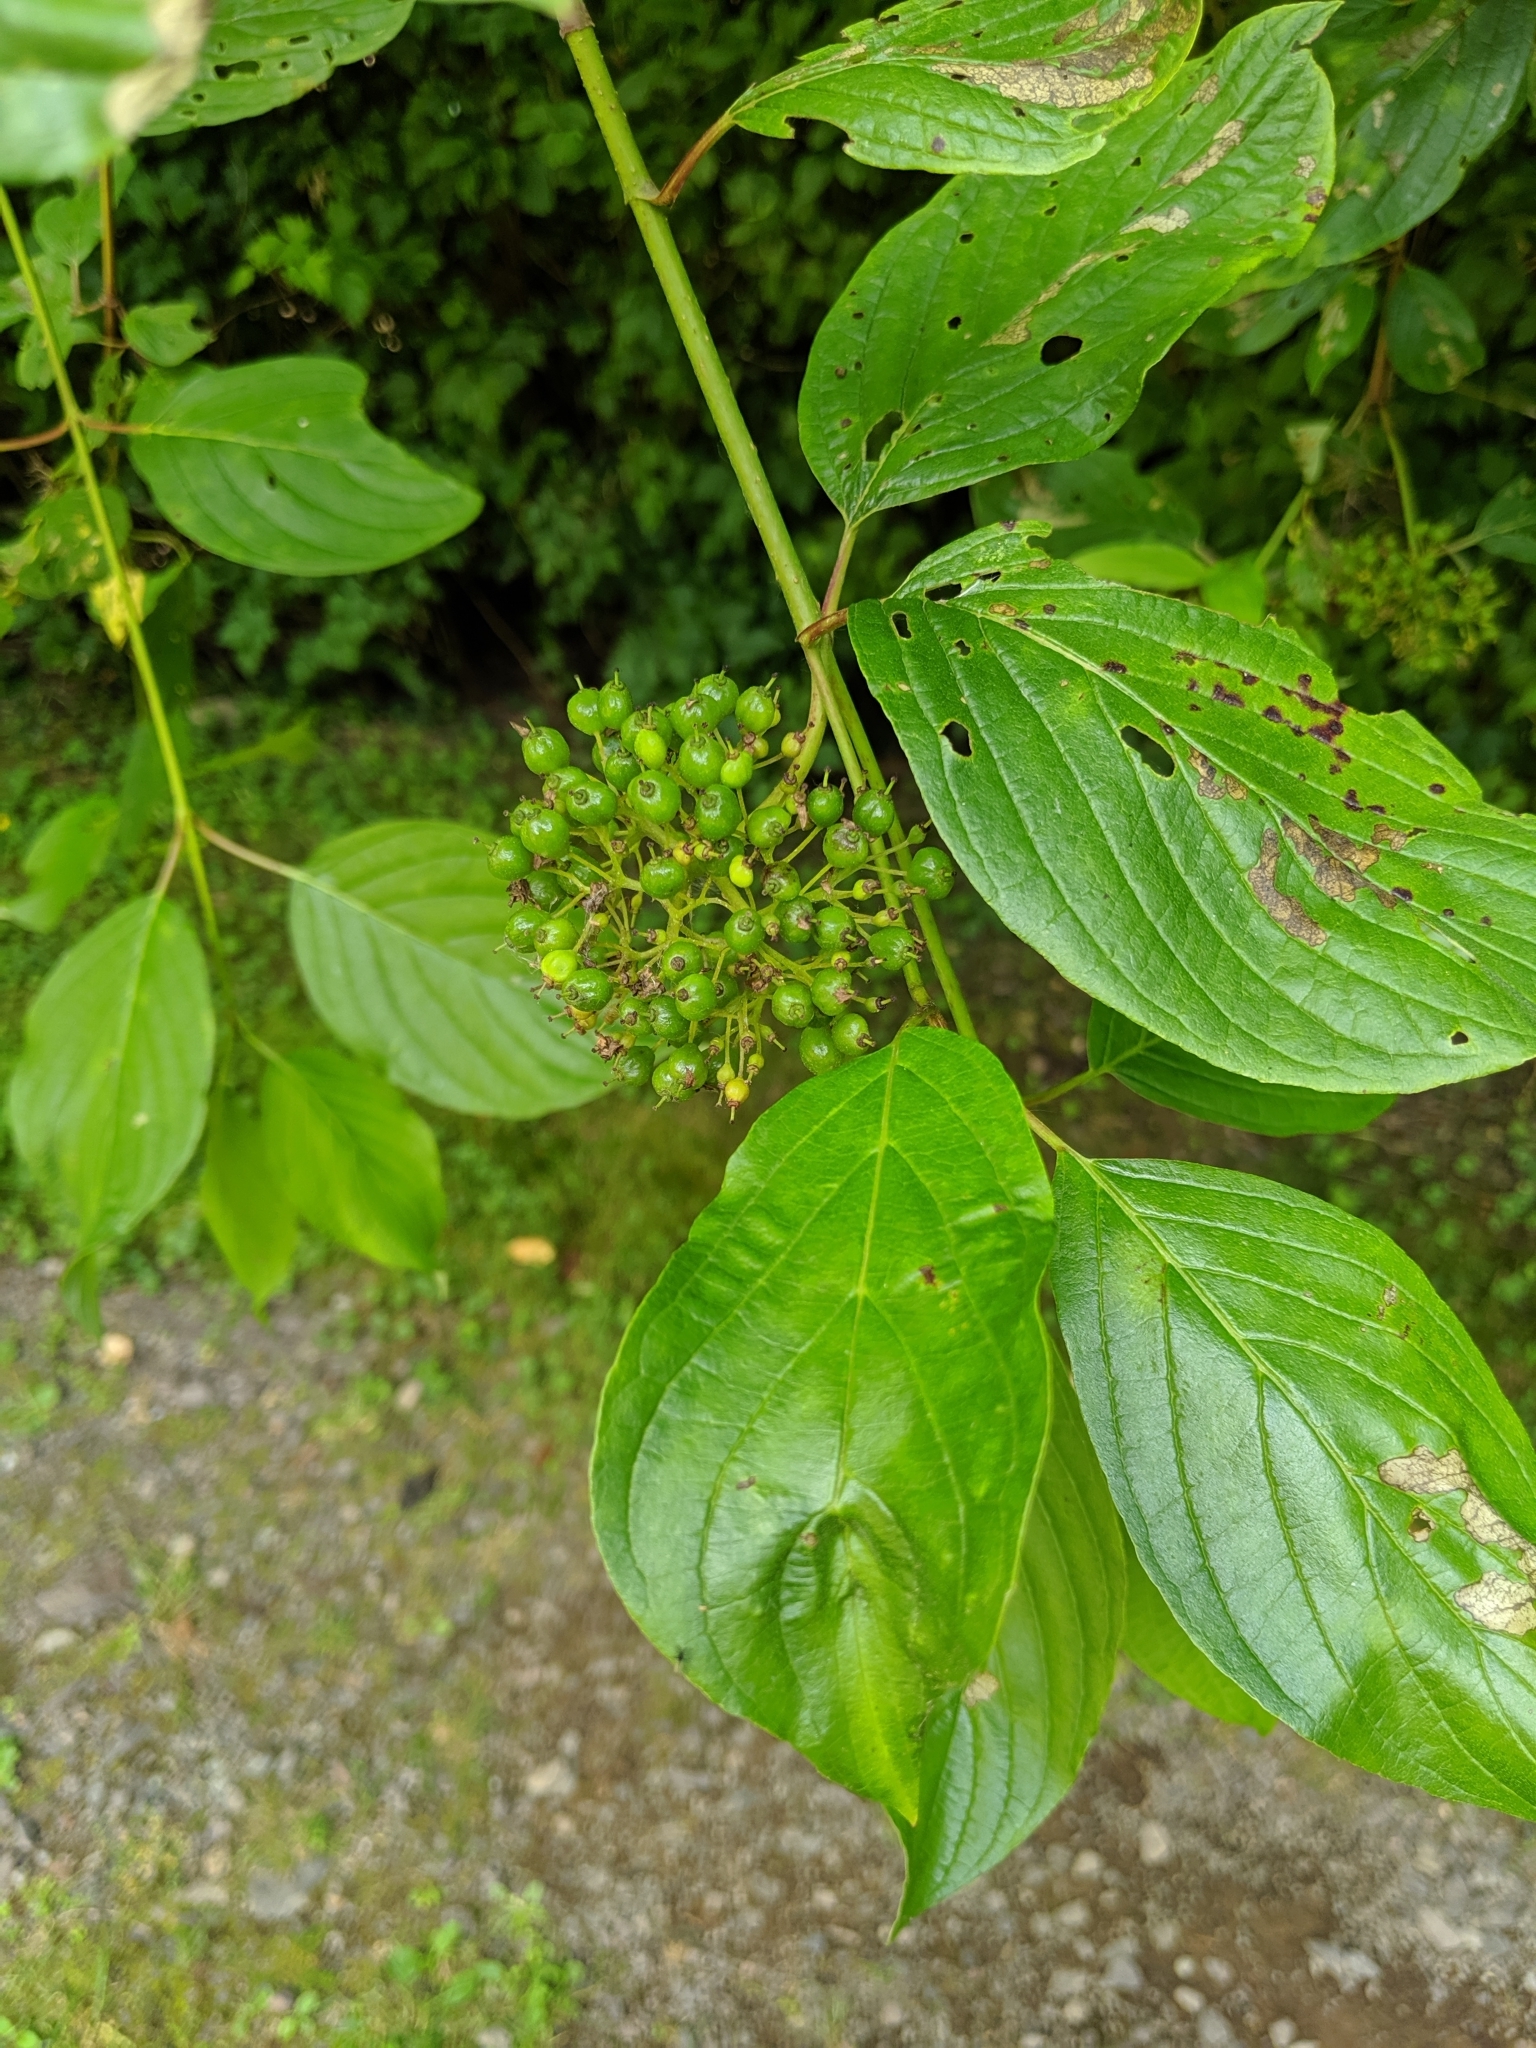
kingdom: Plantae
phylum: Tracheophyta
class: Magnoliopsida
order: Cornales
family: Cornaceae
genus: Cornus
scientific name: Cornus sericea
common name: Red-osier dogwood
